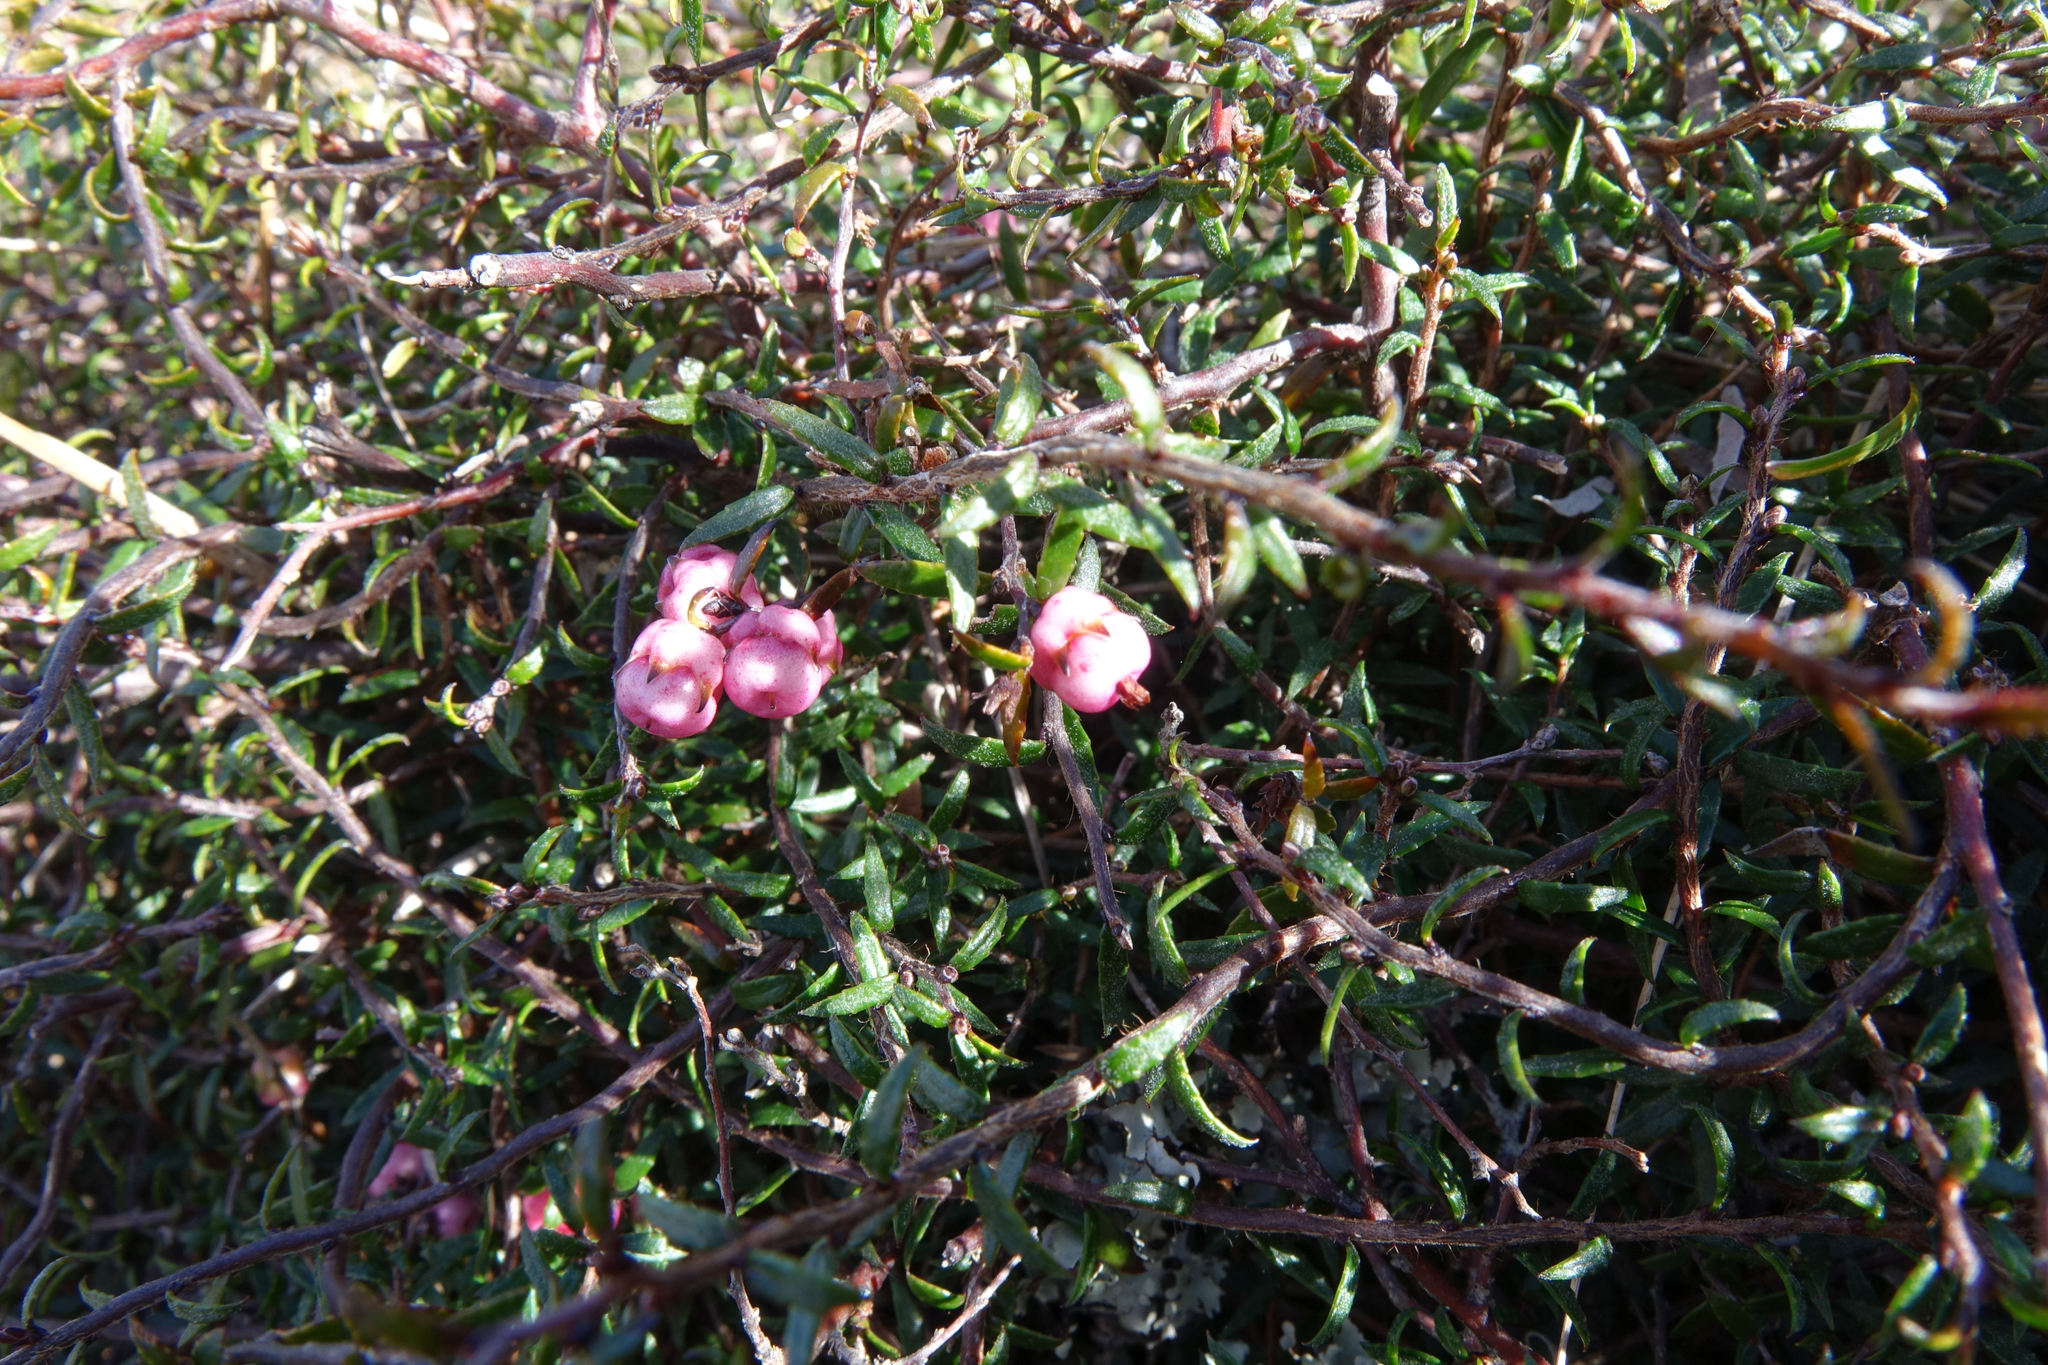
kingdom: Plantae
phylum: Tracheophyta
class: Magnoliopsida
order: Ericales
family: Ericaceae
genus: Gaultheria
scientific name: Gaultheria macrostigma
